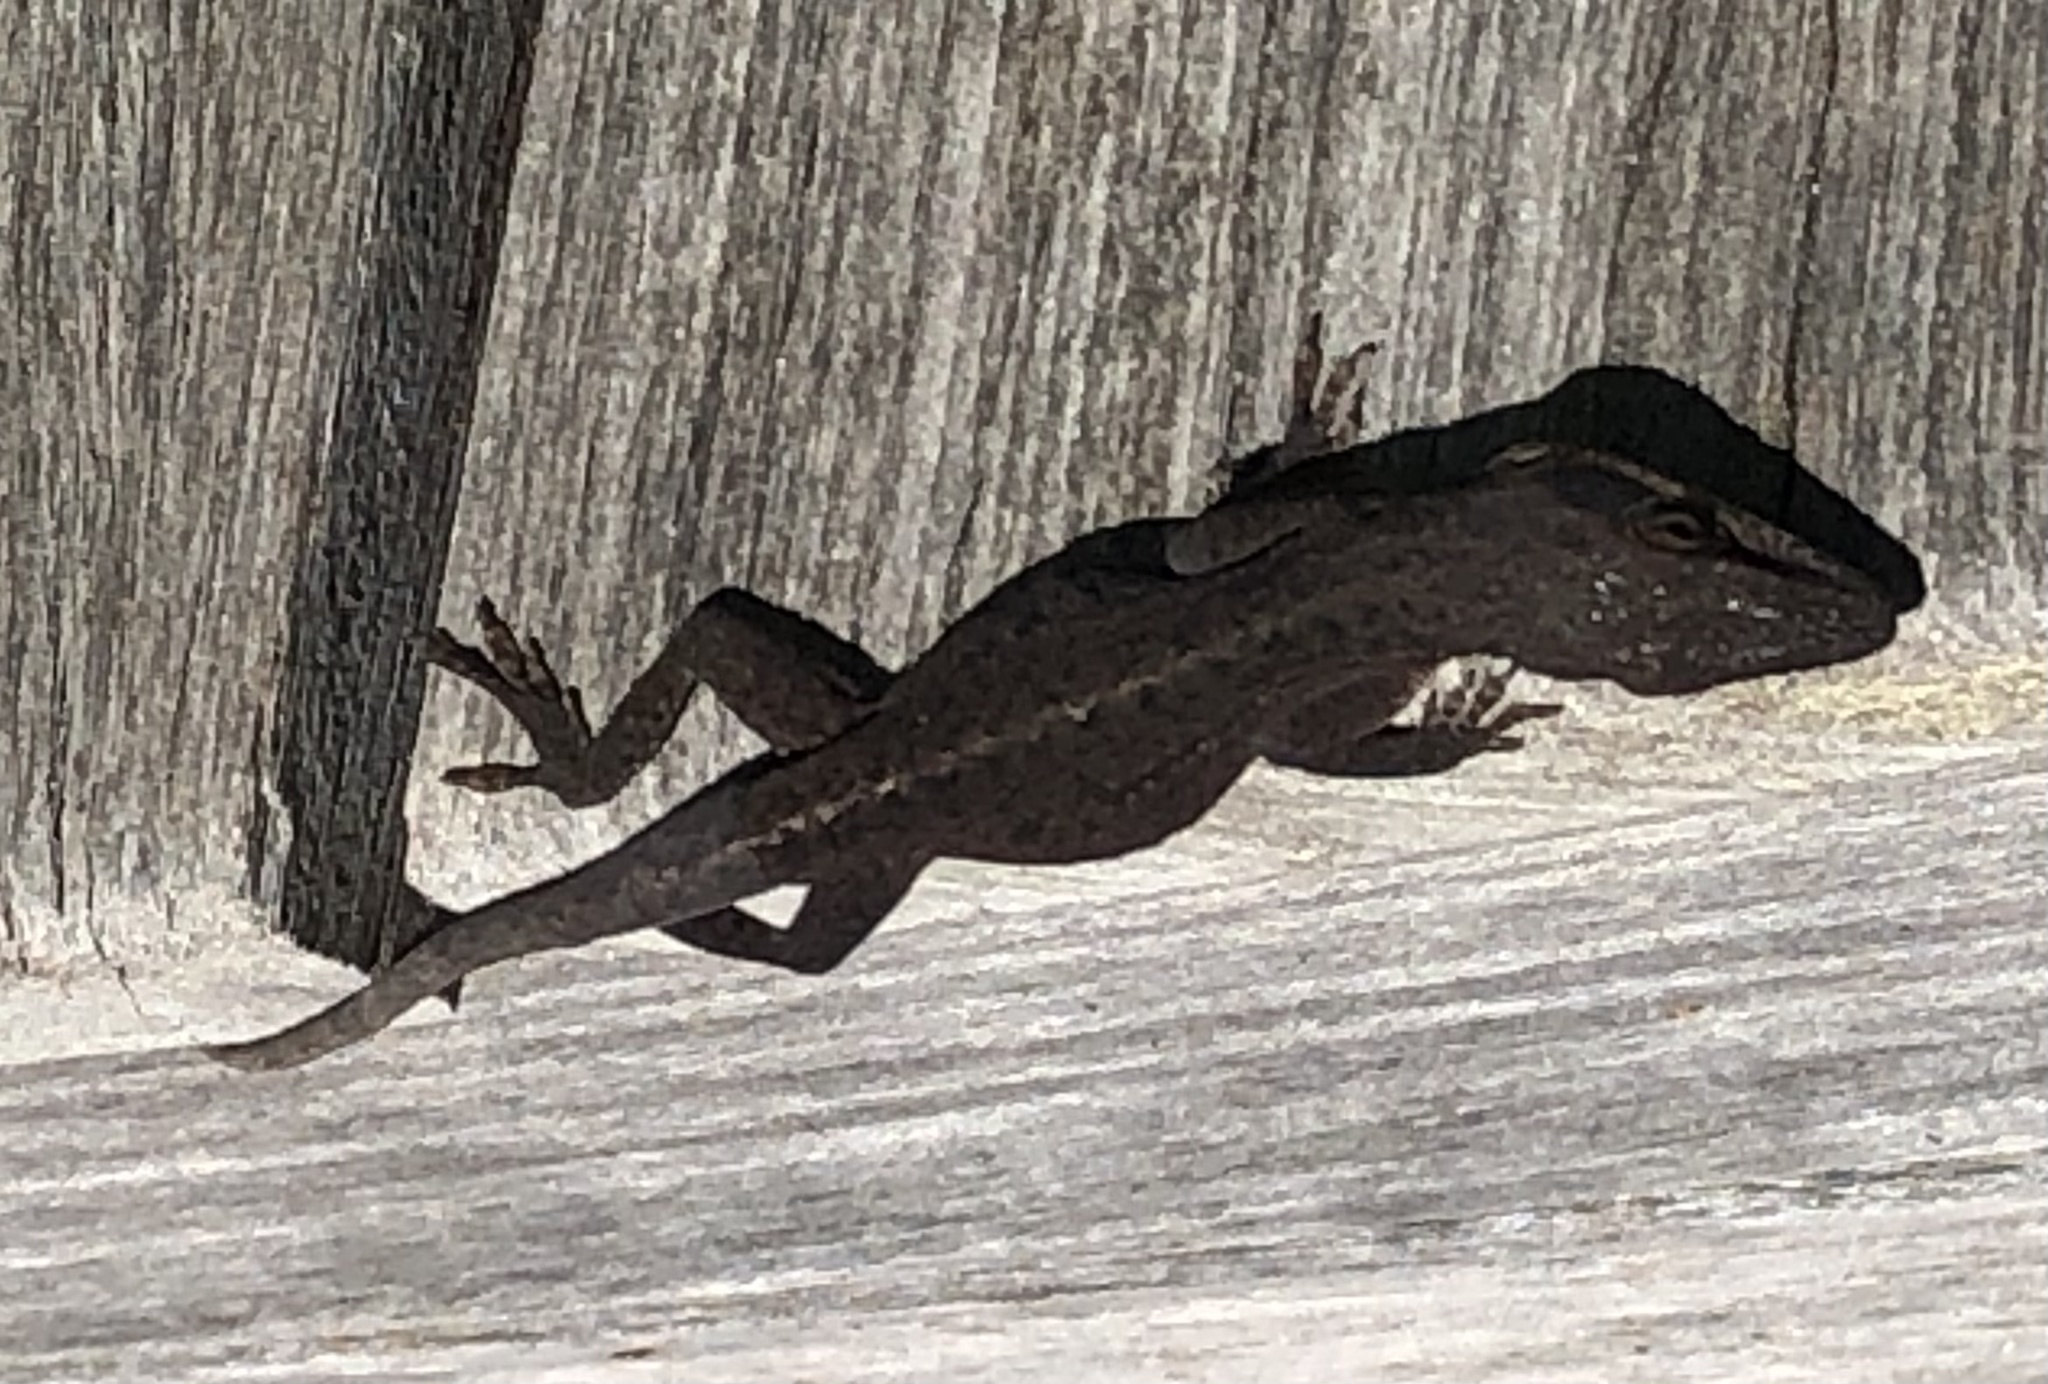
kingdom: Animalia
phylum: Chordata
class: Squamata
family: Dactyloidae
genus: Anolis
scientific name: Anolis carolinensis
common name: Green anole
